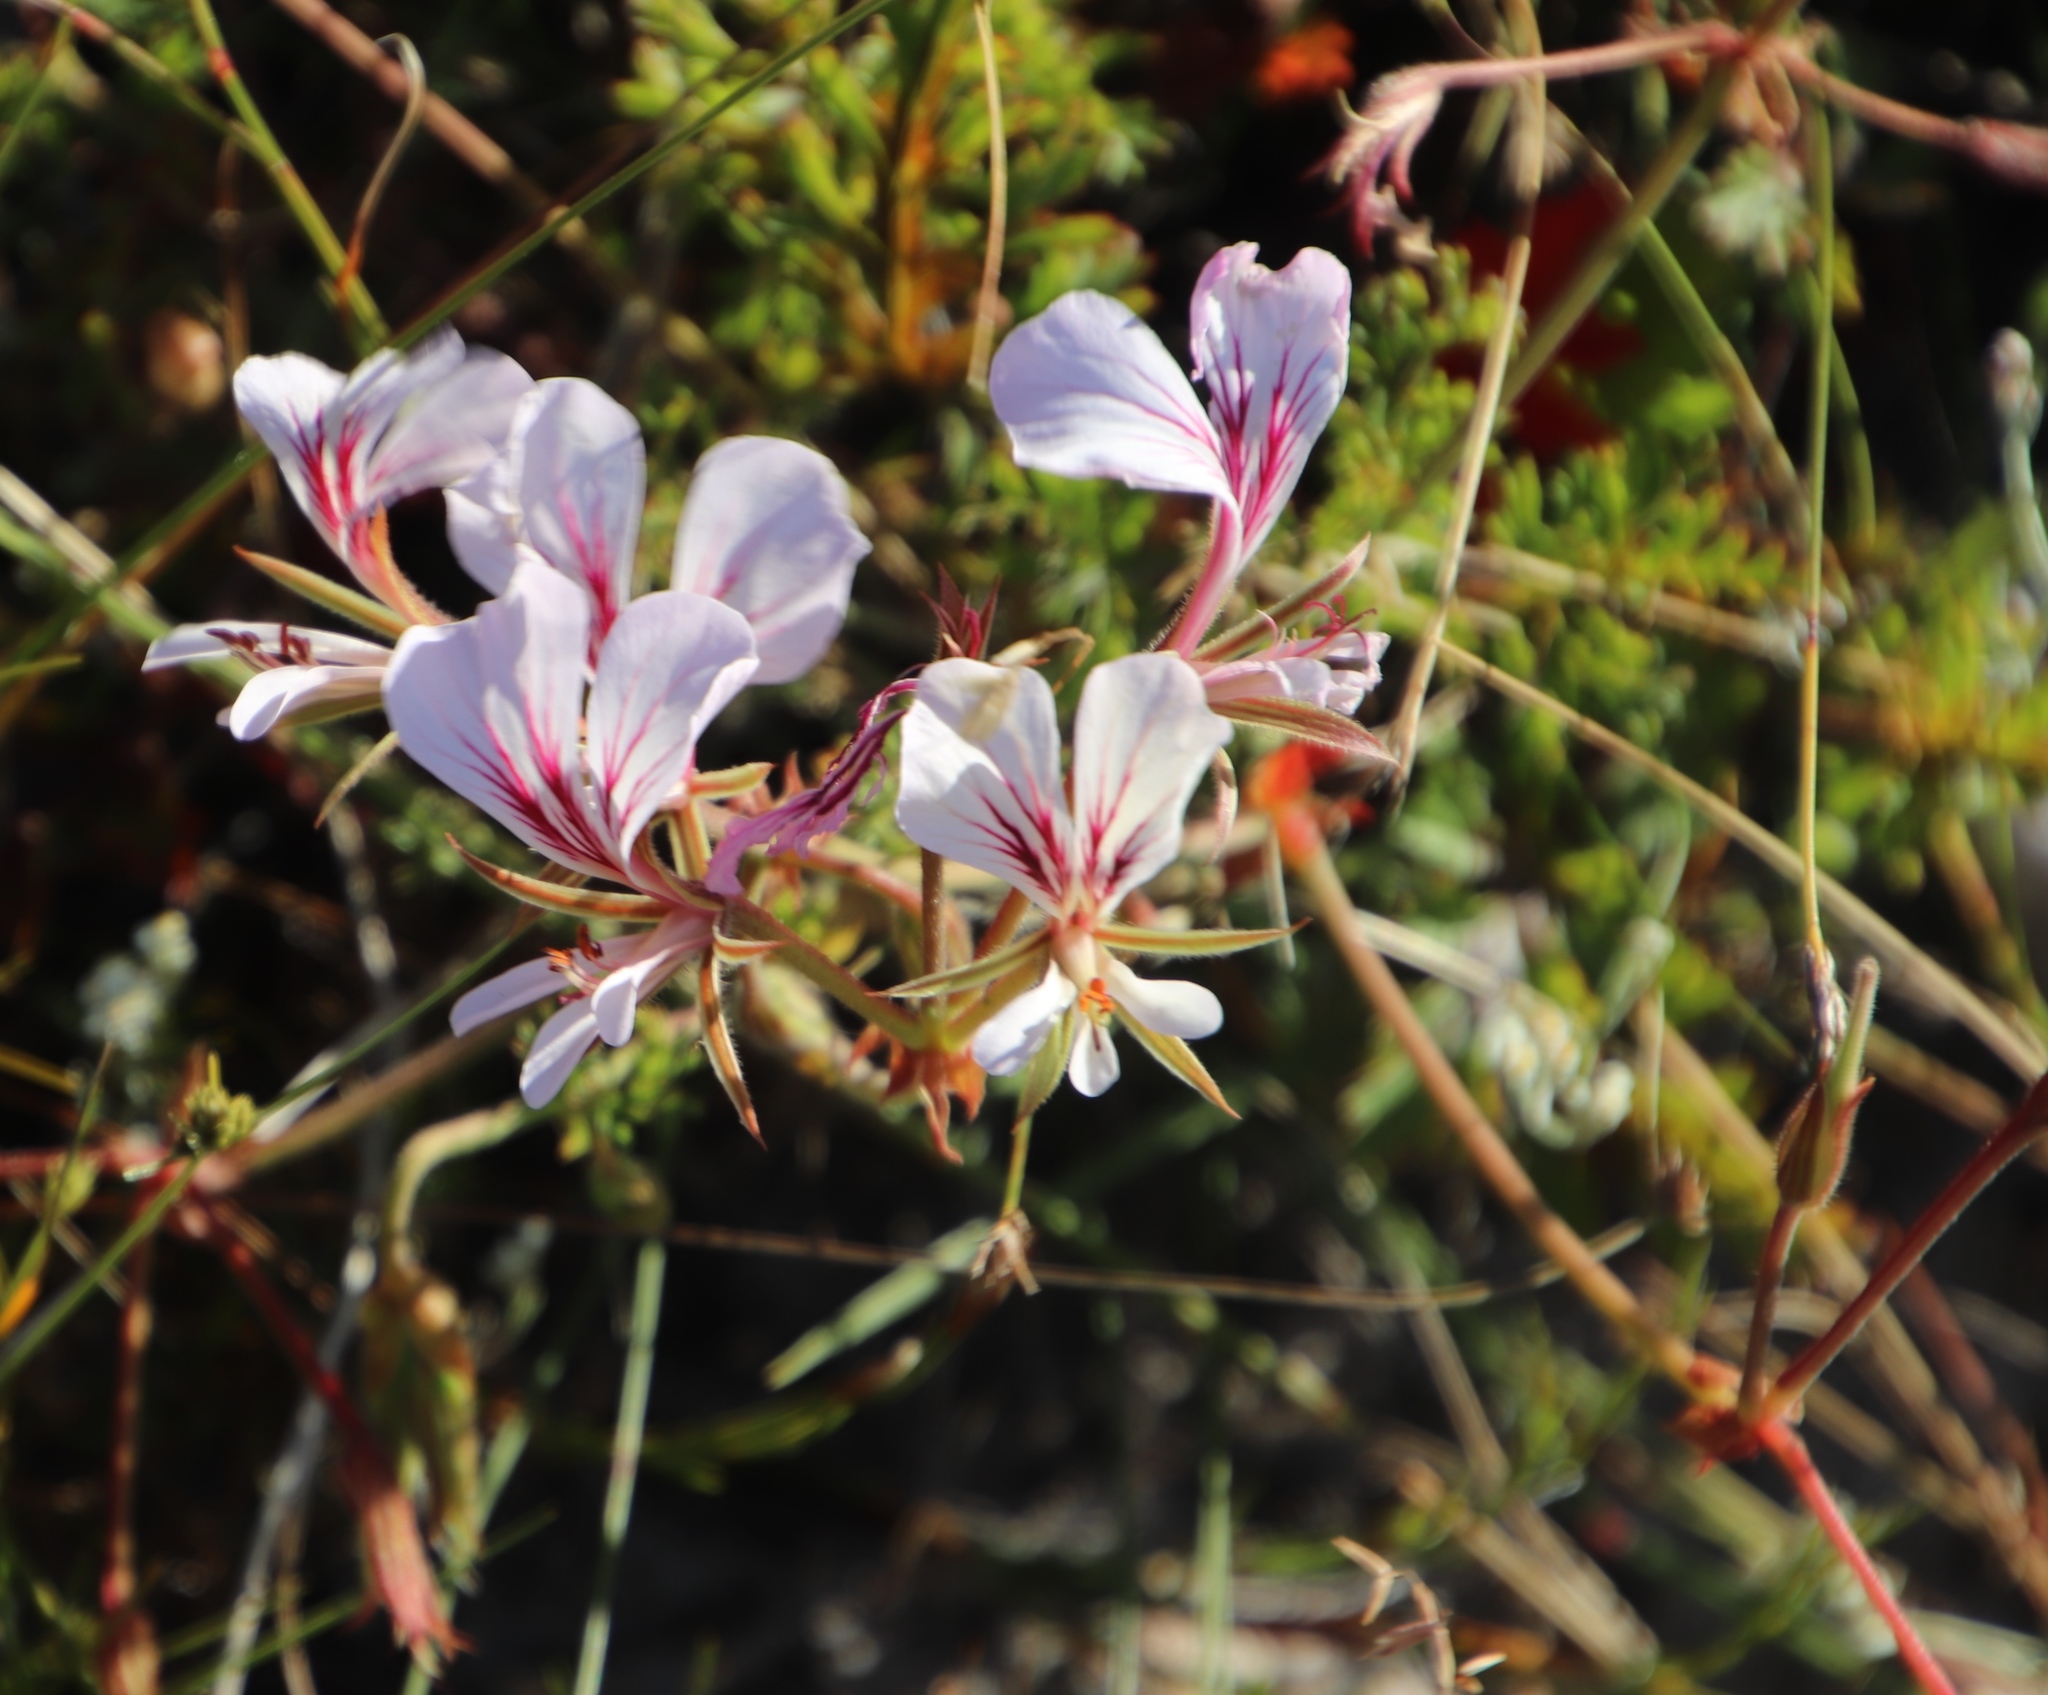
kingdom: Plantae
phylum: Tracheophyta
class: Magnoliopsida
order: Geraniales
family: Geraniaceae
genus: Pelargonium
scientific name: Pelargonium longicaule
